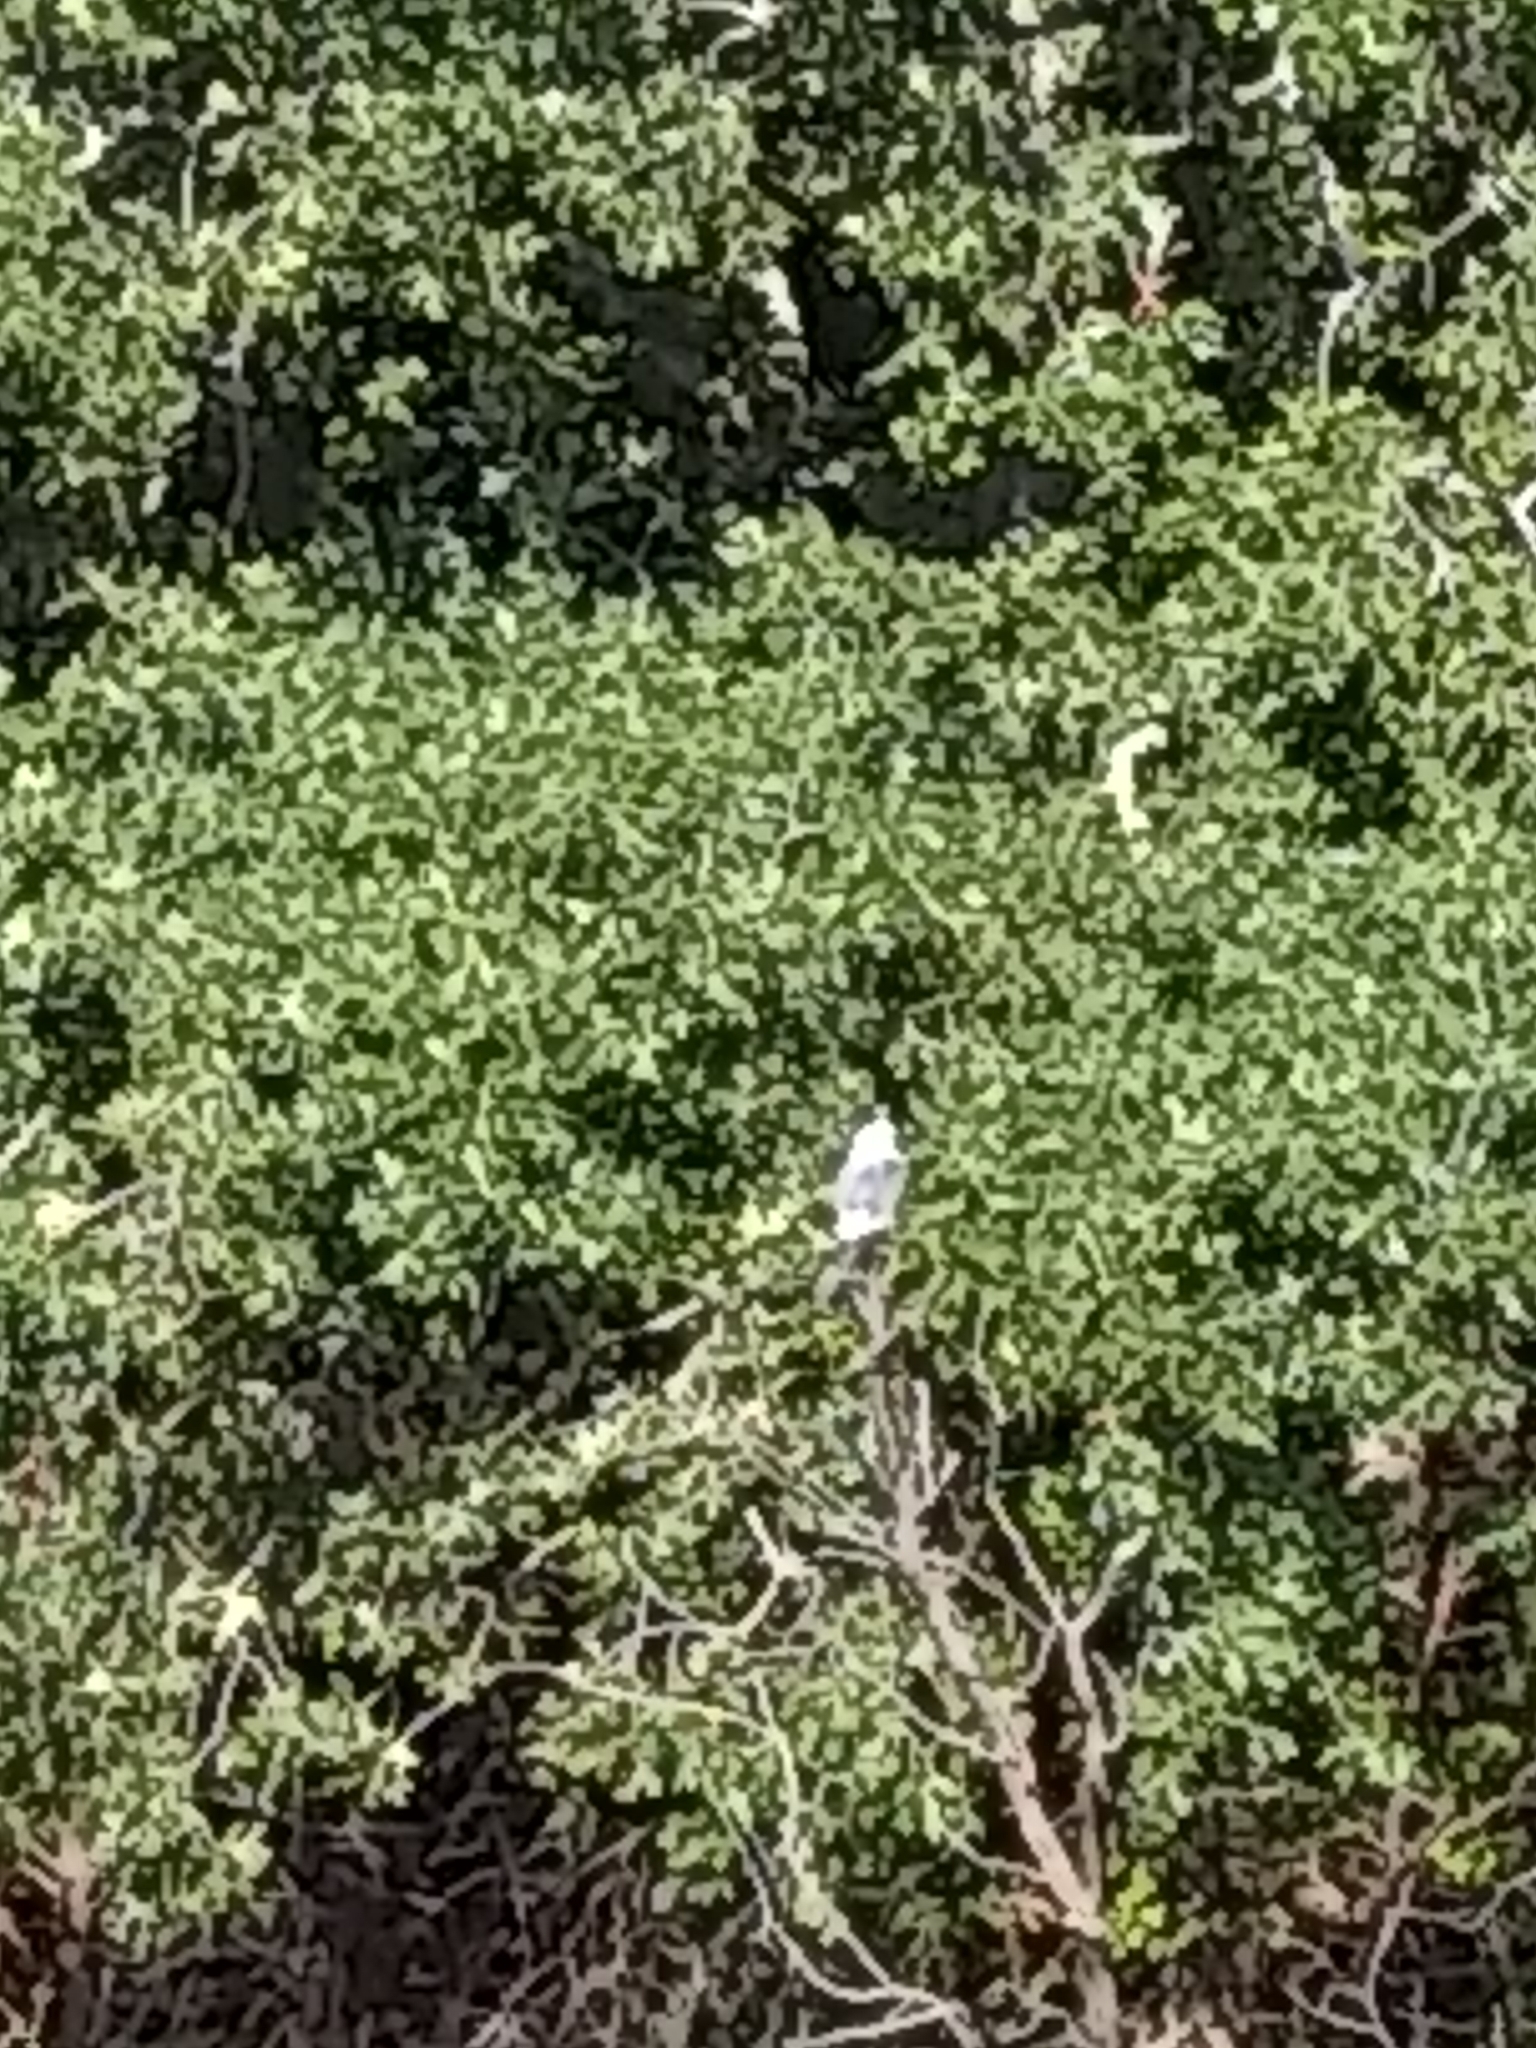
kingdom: Animalia
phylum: Chordata
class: Aves
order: Accipitriformes
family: Accipitridae
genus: Ictinia
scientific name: Ictinia mississippiensis
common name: Mississippi kite
